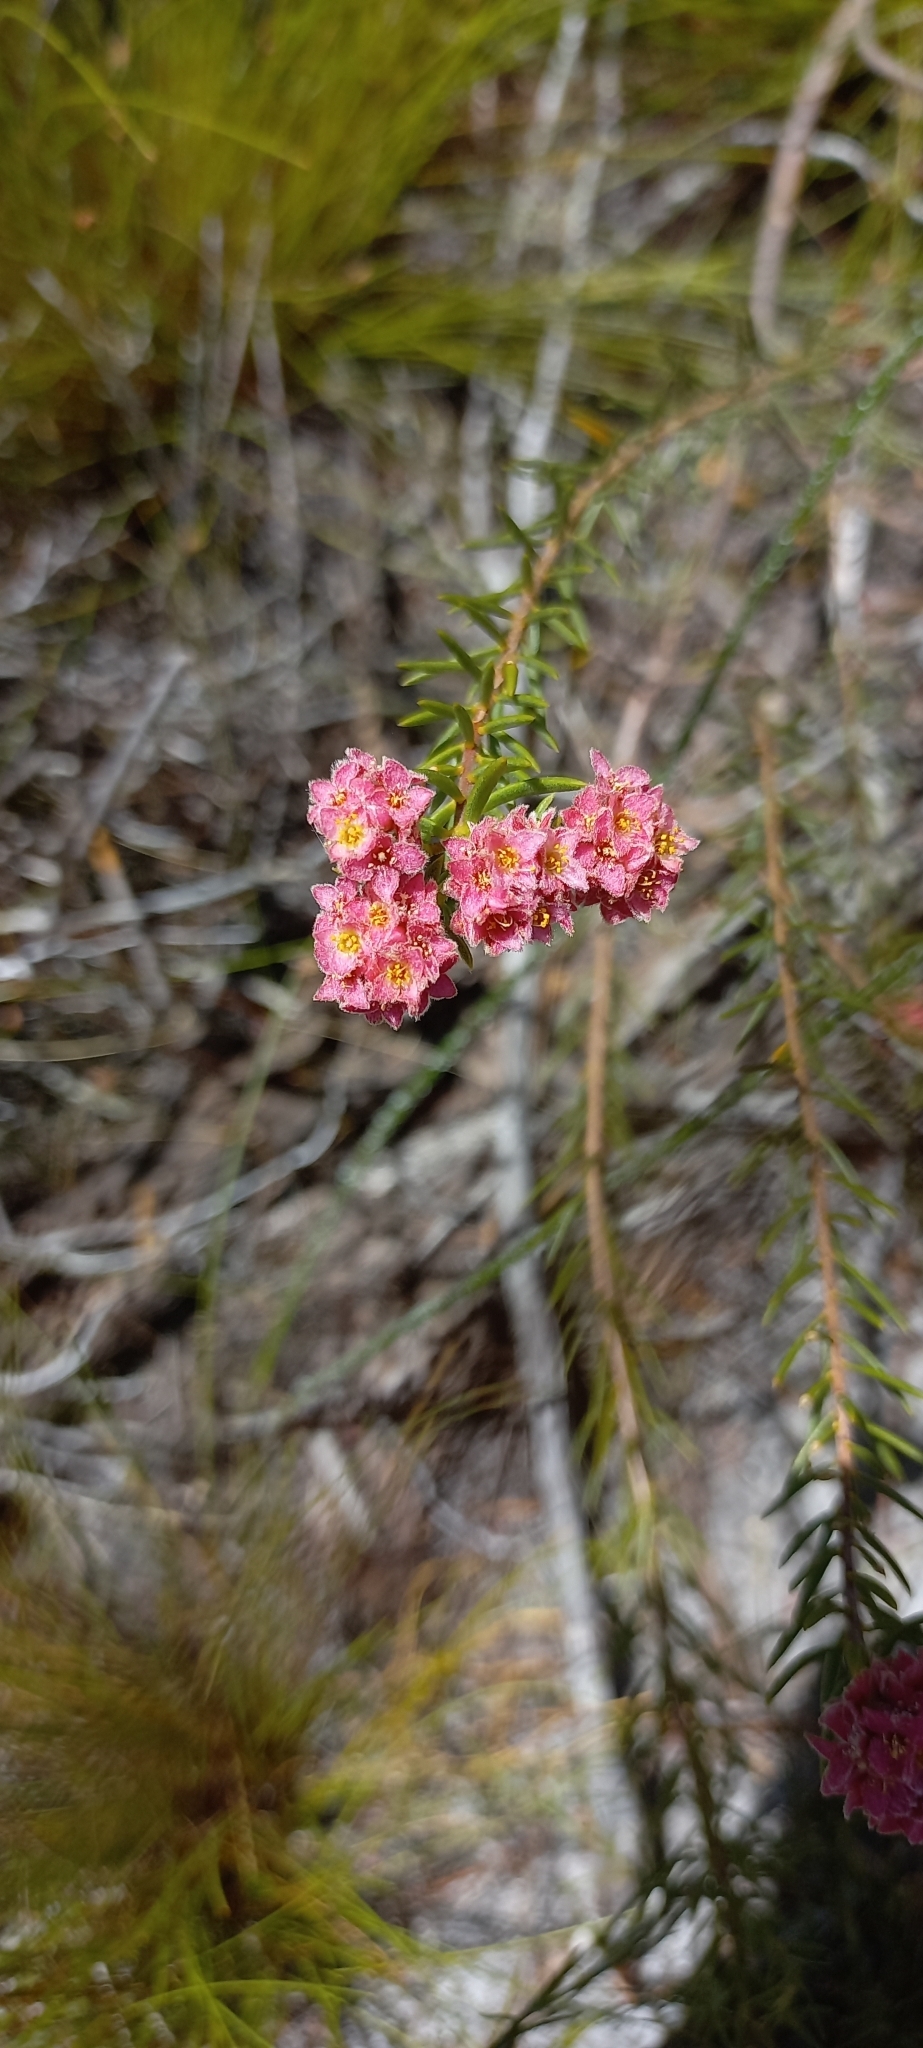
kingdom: Plantae
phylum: Tracheophyta
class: Magnoliopsida
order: Malvales
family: Thymelaeaceae
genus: Lachnaea
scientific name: Lachnaea densiflora
